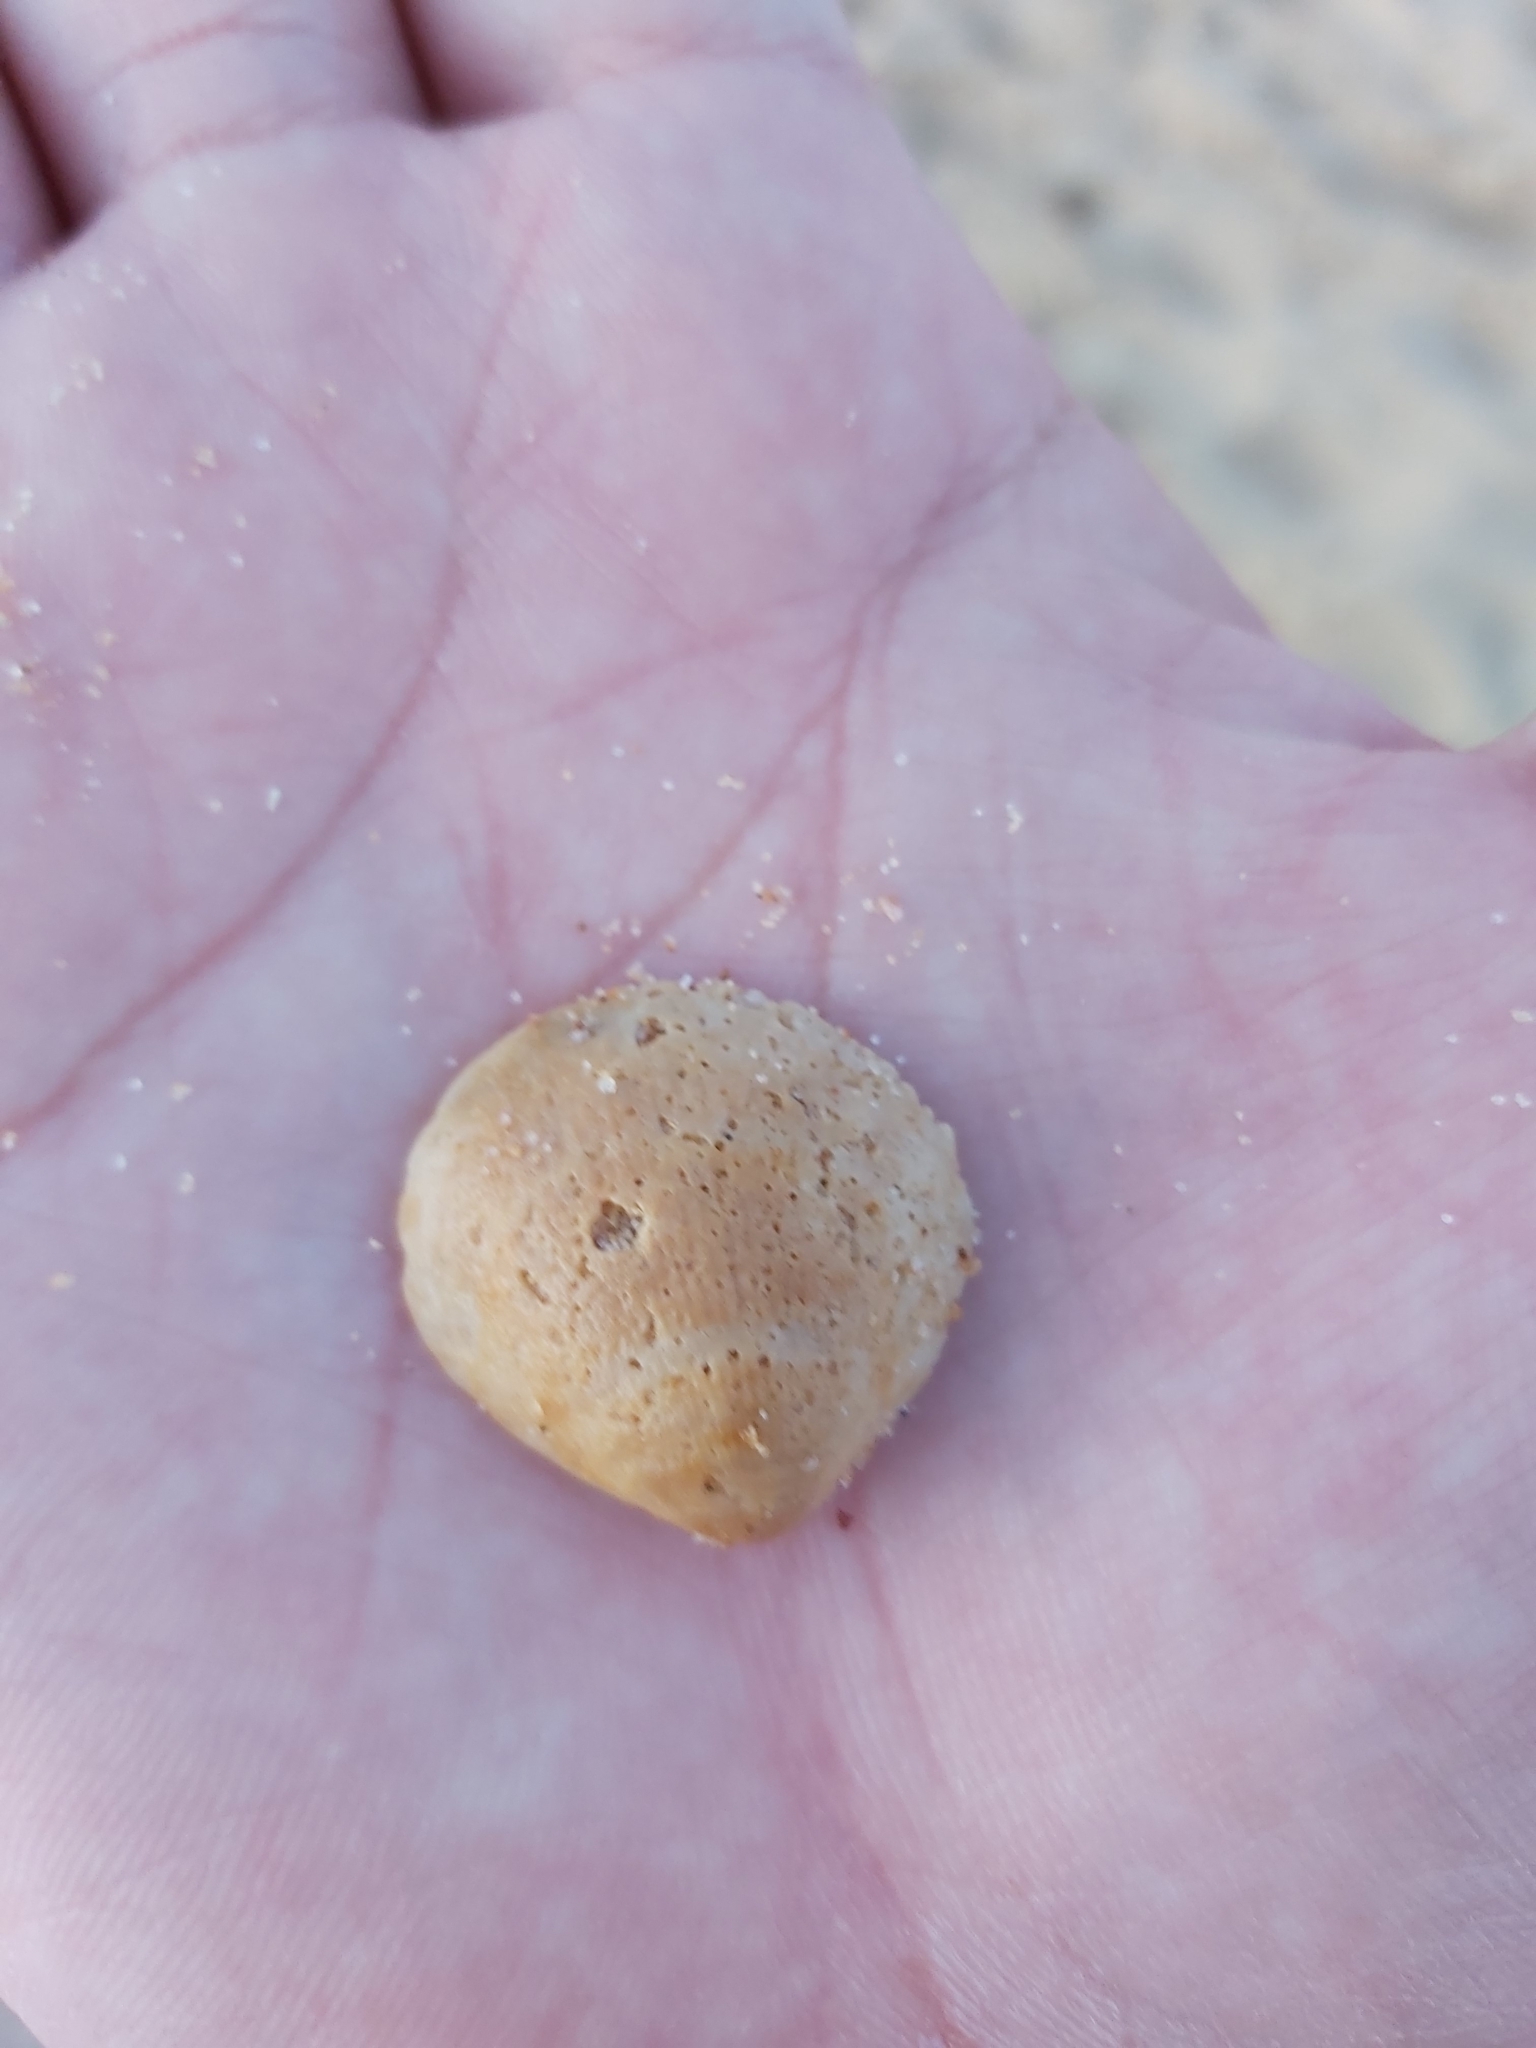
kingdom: Animalia
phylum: Mollusca
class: Bivalvia
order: Arcida
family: Glycymerididae
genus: Glycymeris
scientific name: Glycymeris grayana
